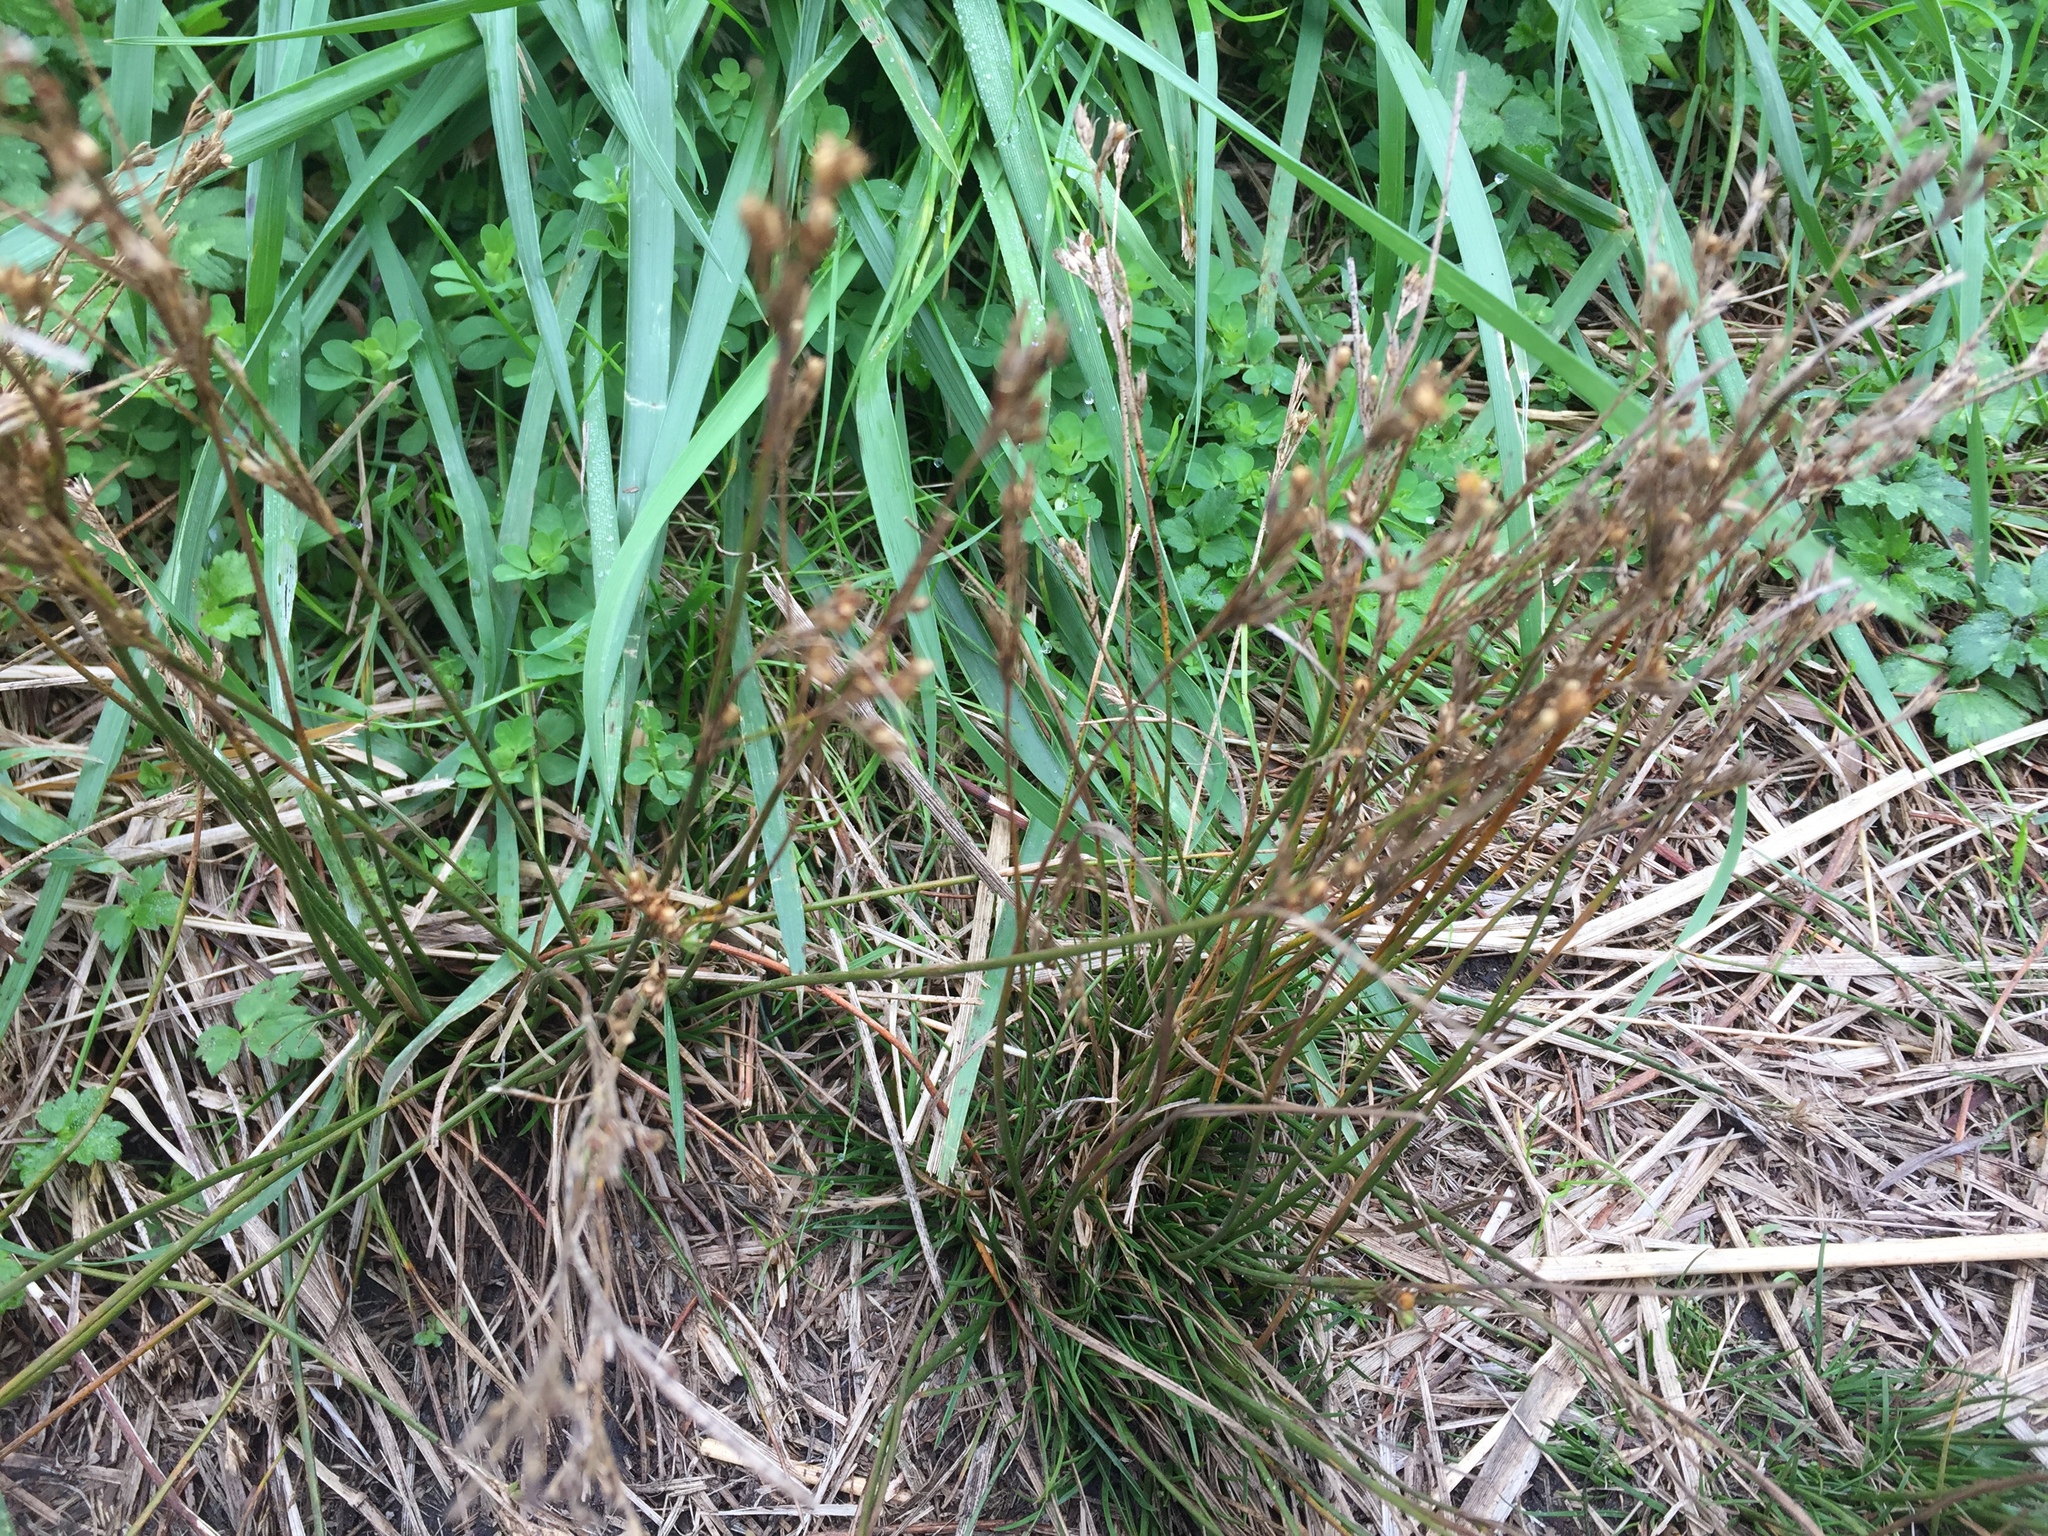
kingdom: Plantae
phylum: Tracheophyta
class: Liliopsida
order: Poales
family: Juncaceae
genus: Juncus
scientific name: Juncus tenuis
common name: Slender rush
